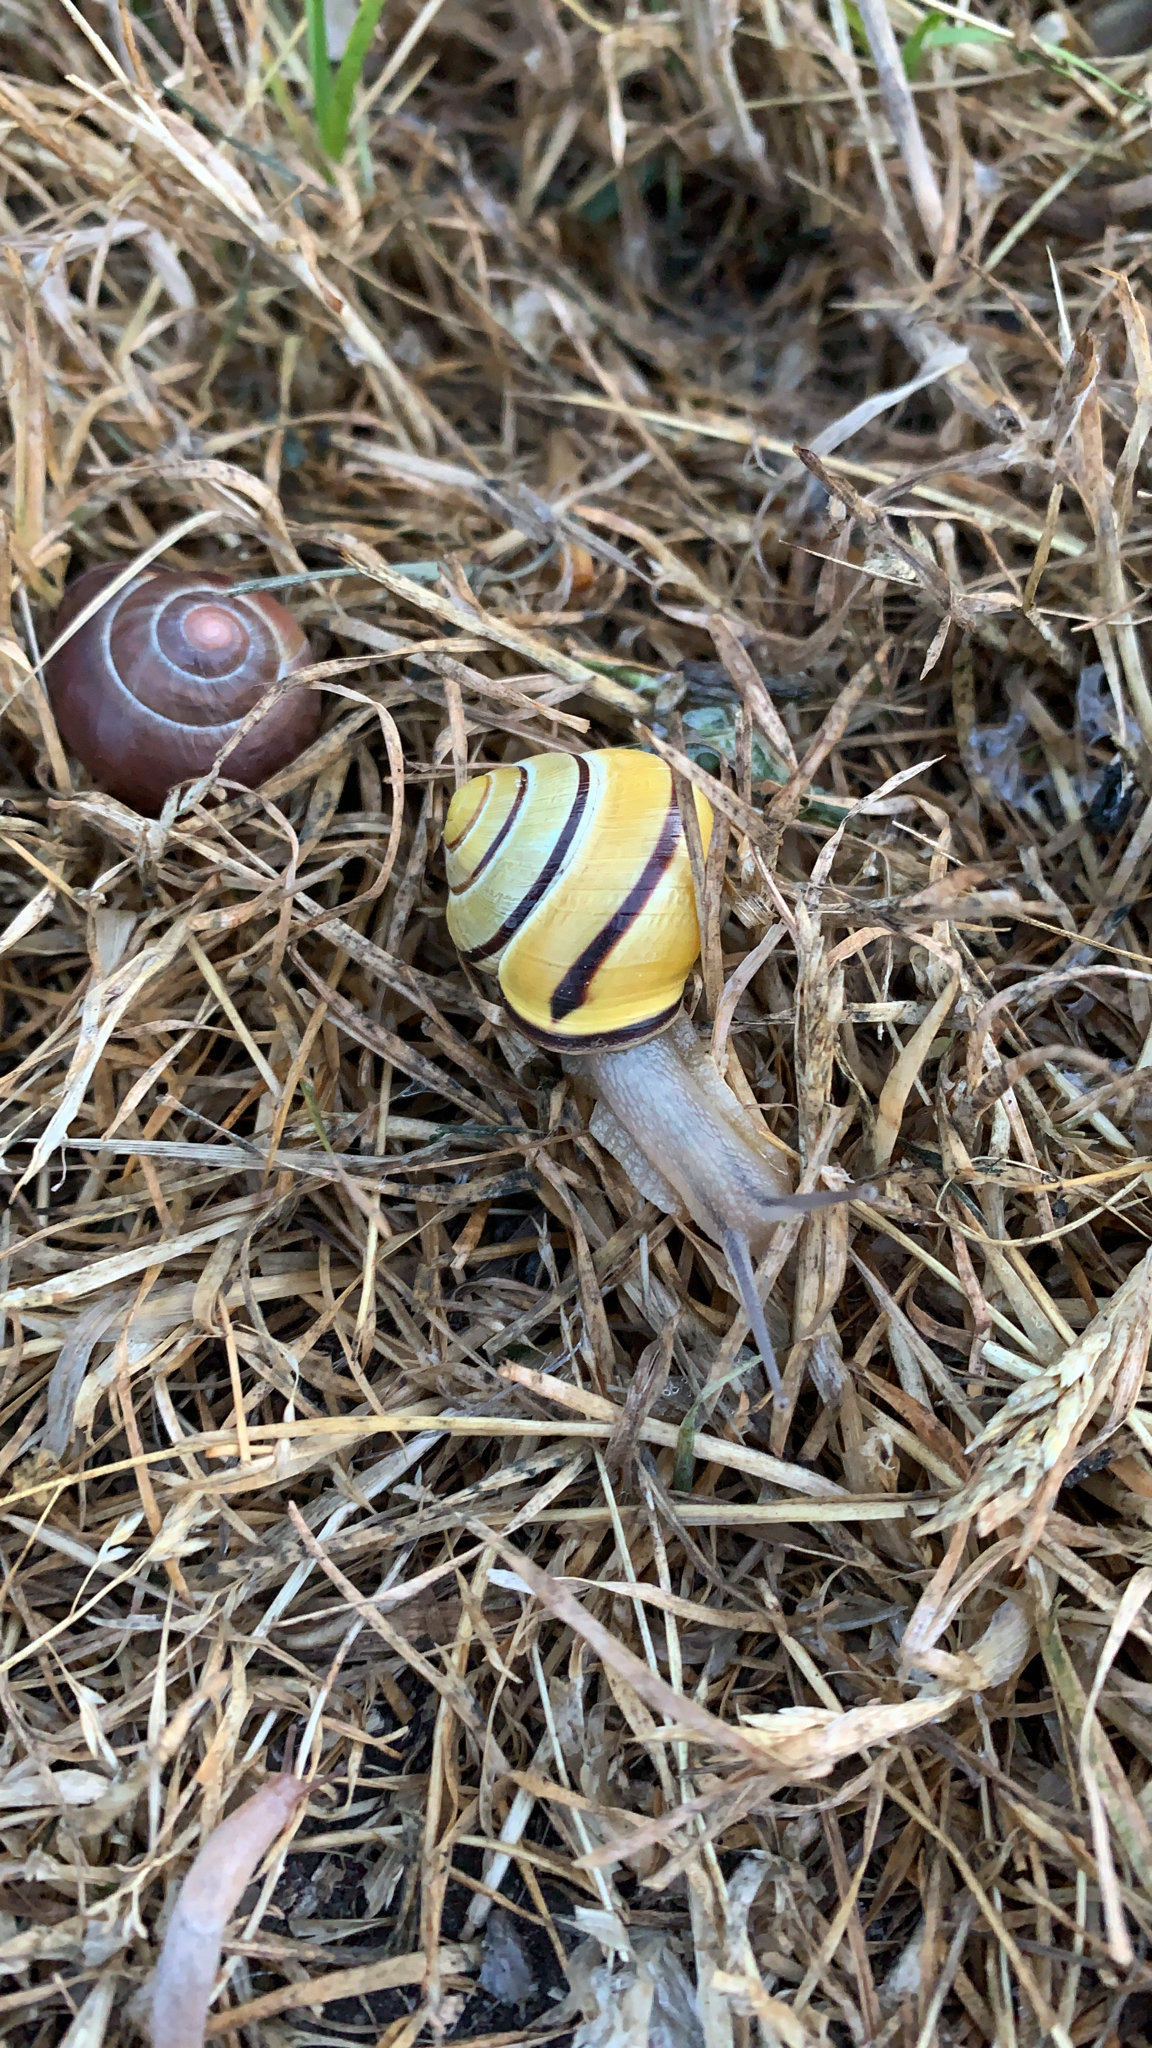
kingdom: Animalia
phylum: Mollusca
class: Gastropoda
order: Stylommatophora
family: Helicidae
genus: Cepaea
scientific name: Cepaea nemoralis
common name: Grovesnail
